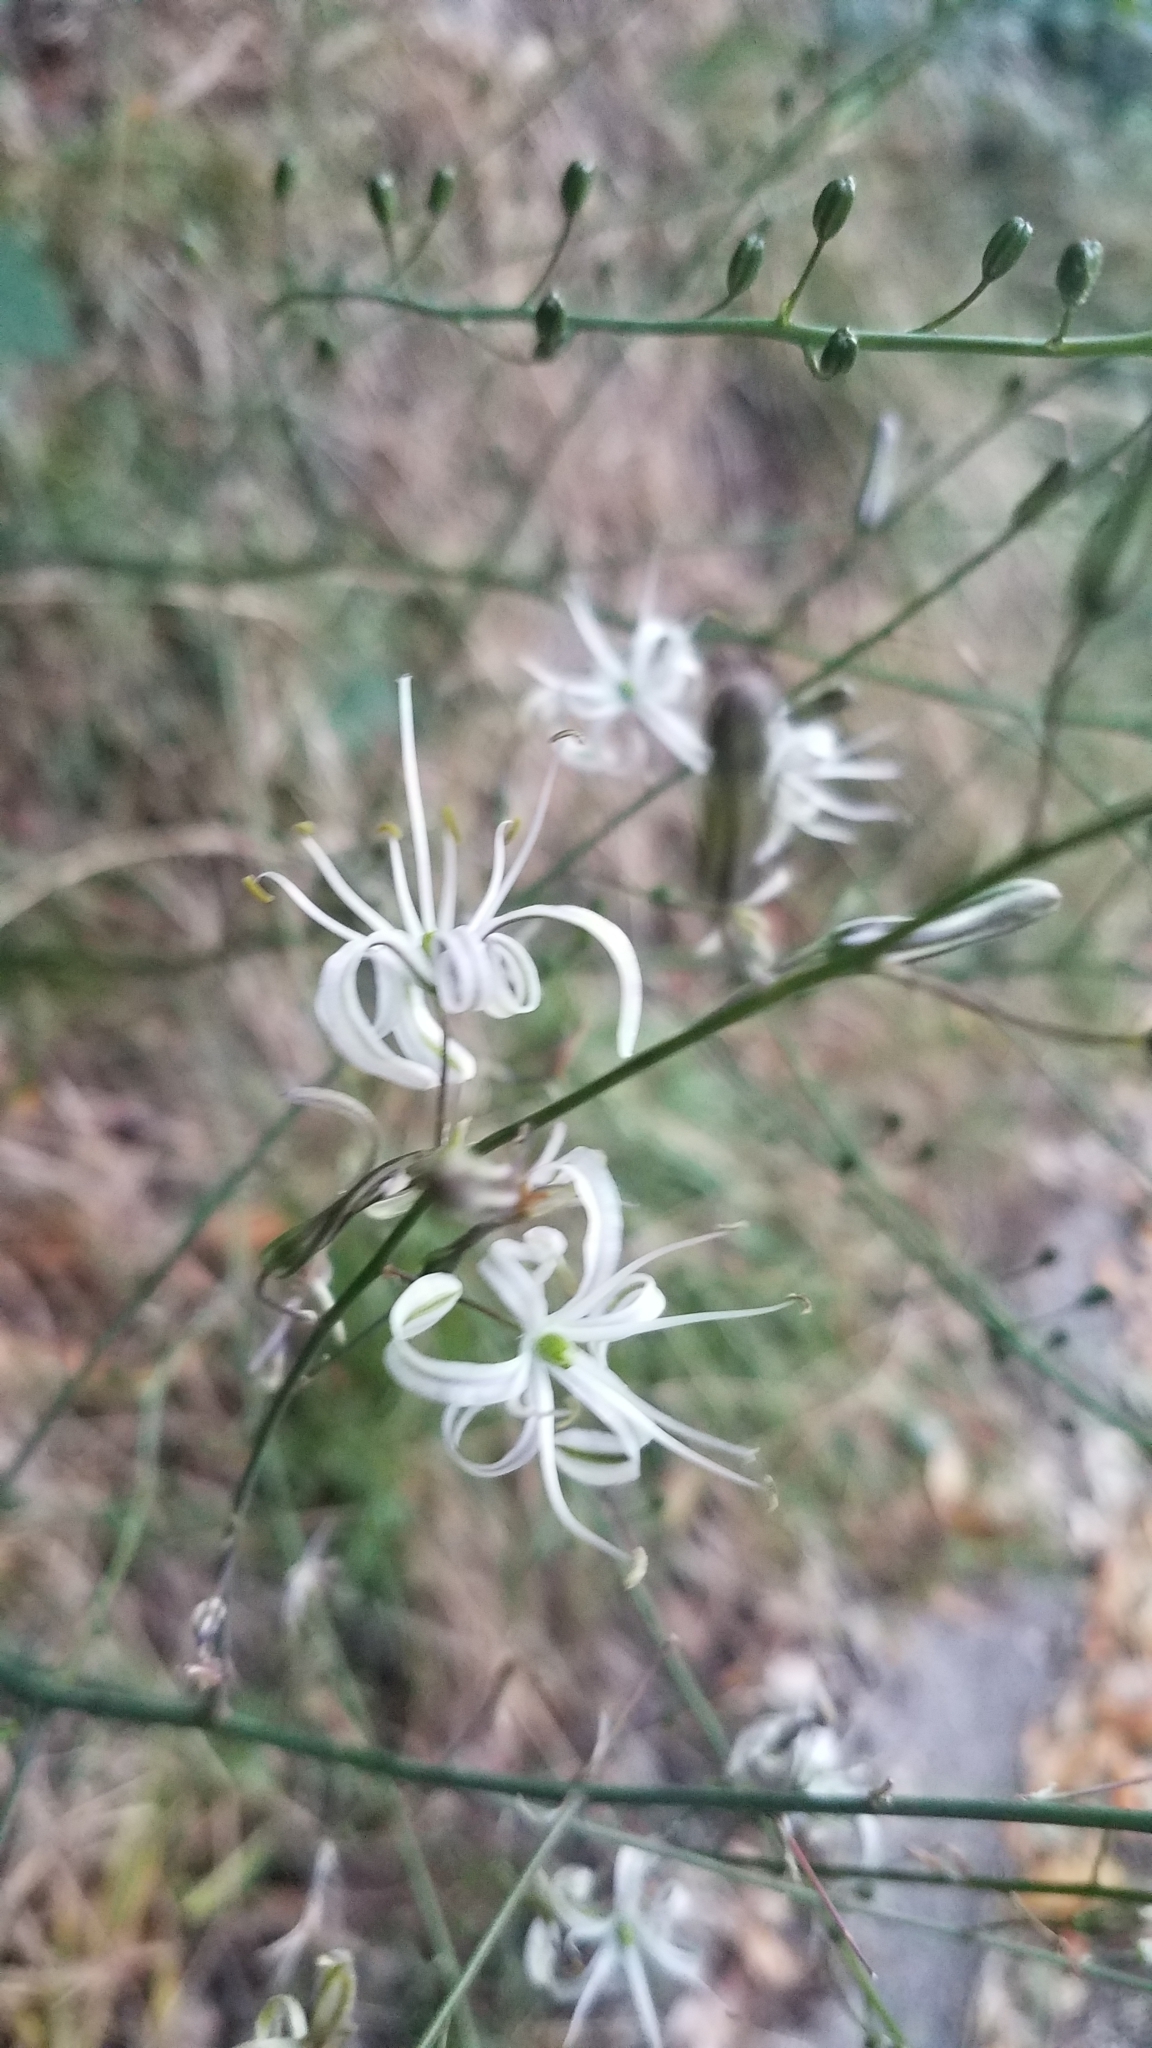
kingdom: Plantae
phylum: Tracheophyta
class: Liliopsida
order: Asparagales
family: Asparagaceae
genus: Chlorogalum
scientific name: Chlorogalum pomeridianum
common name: Amole
